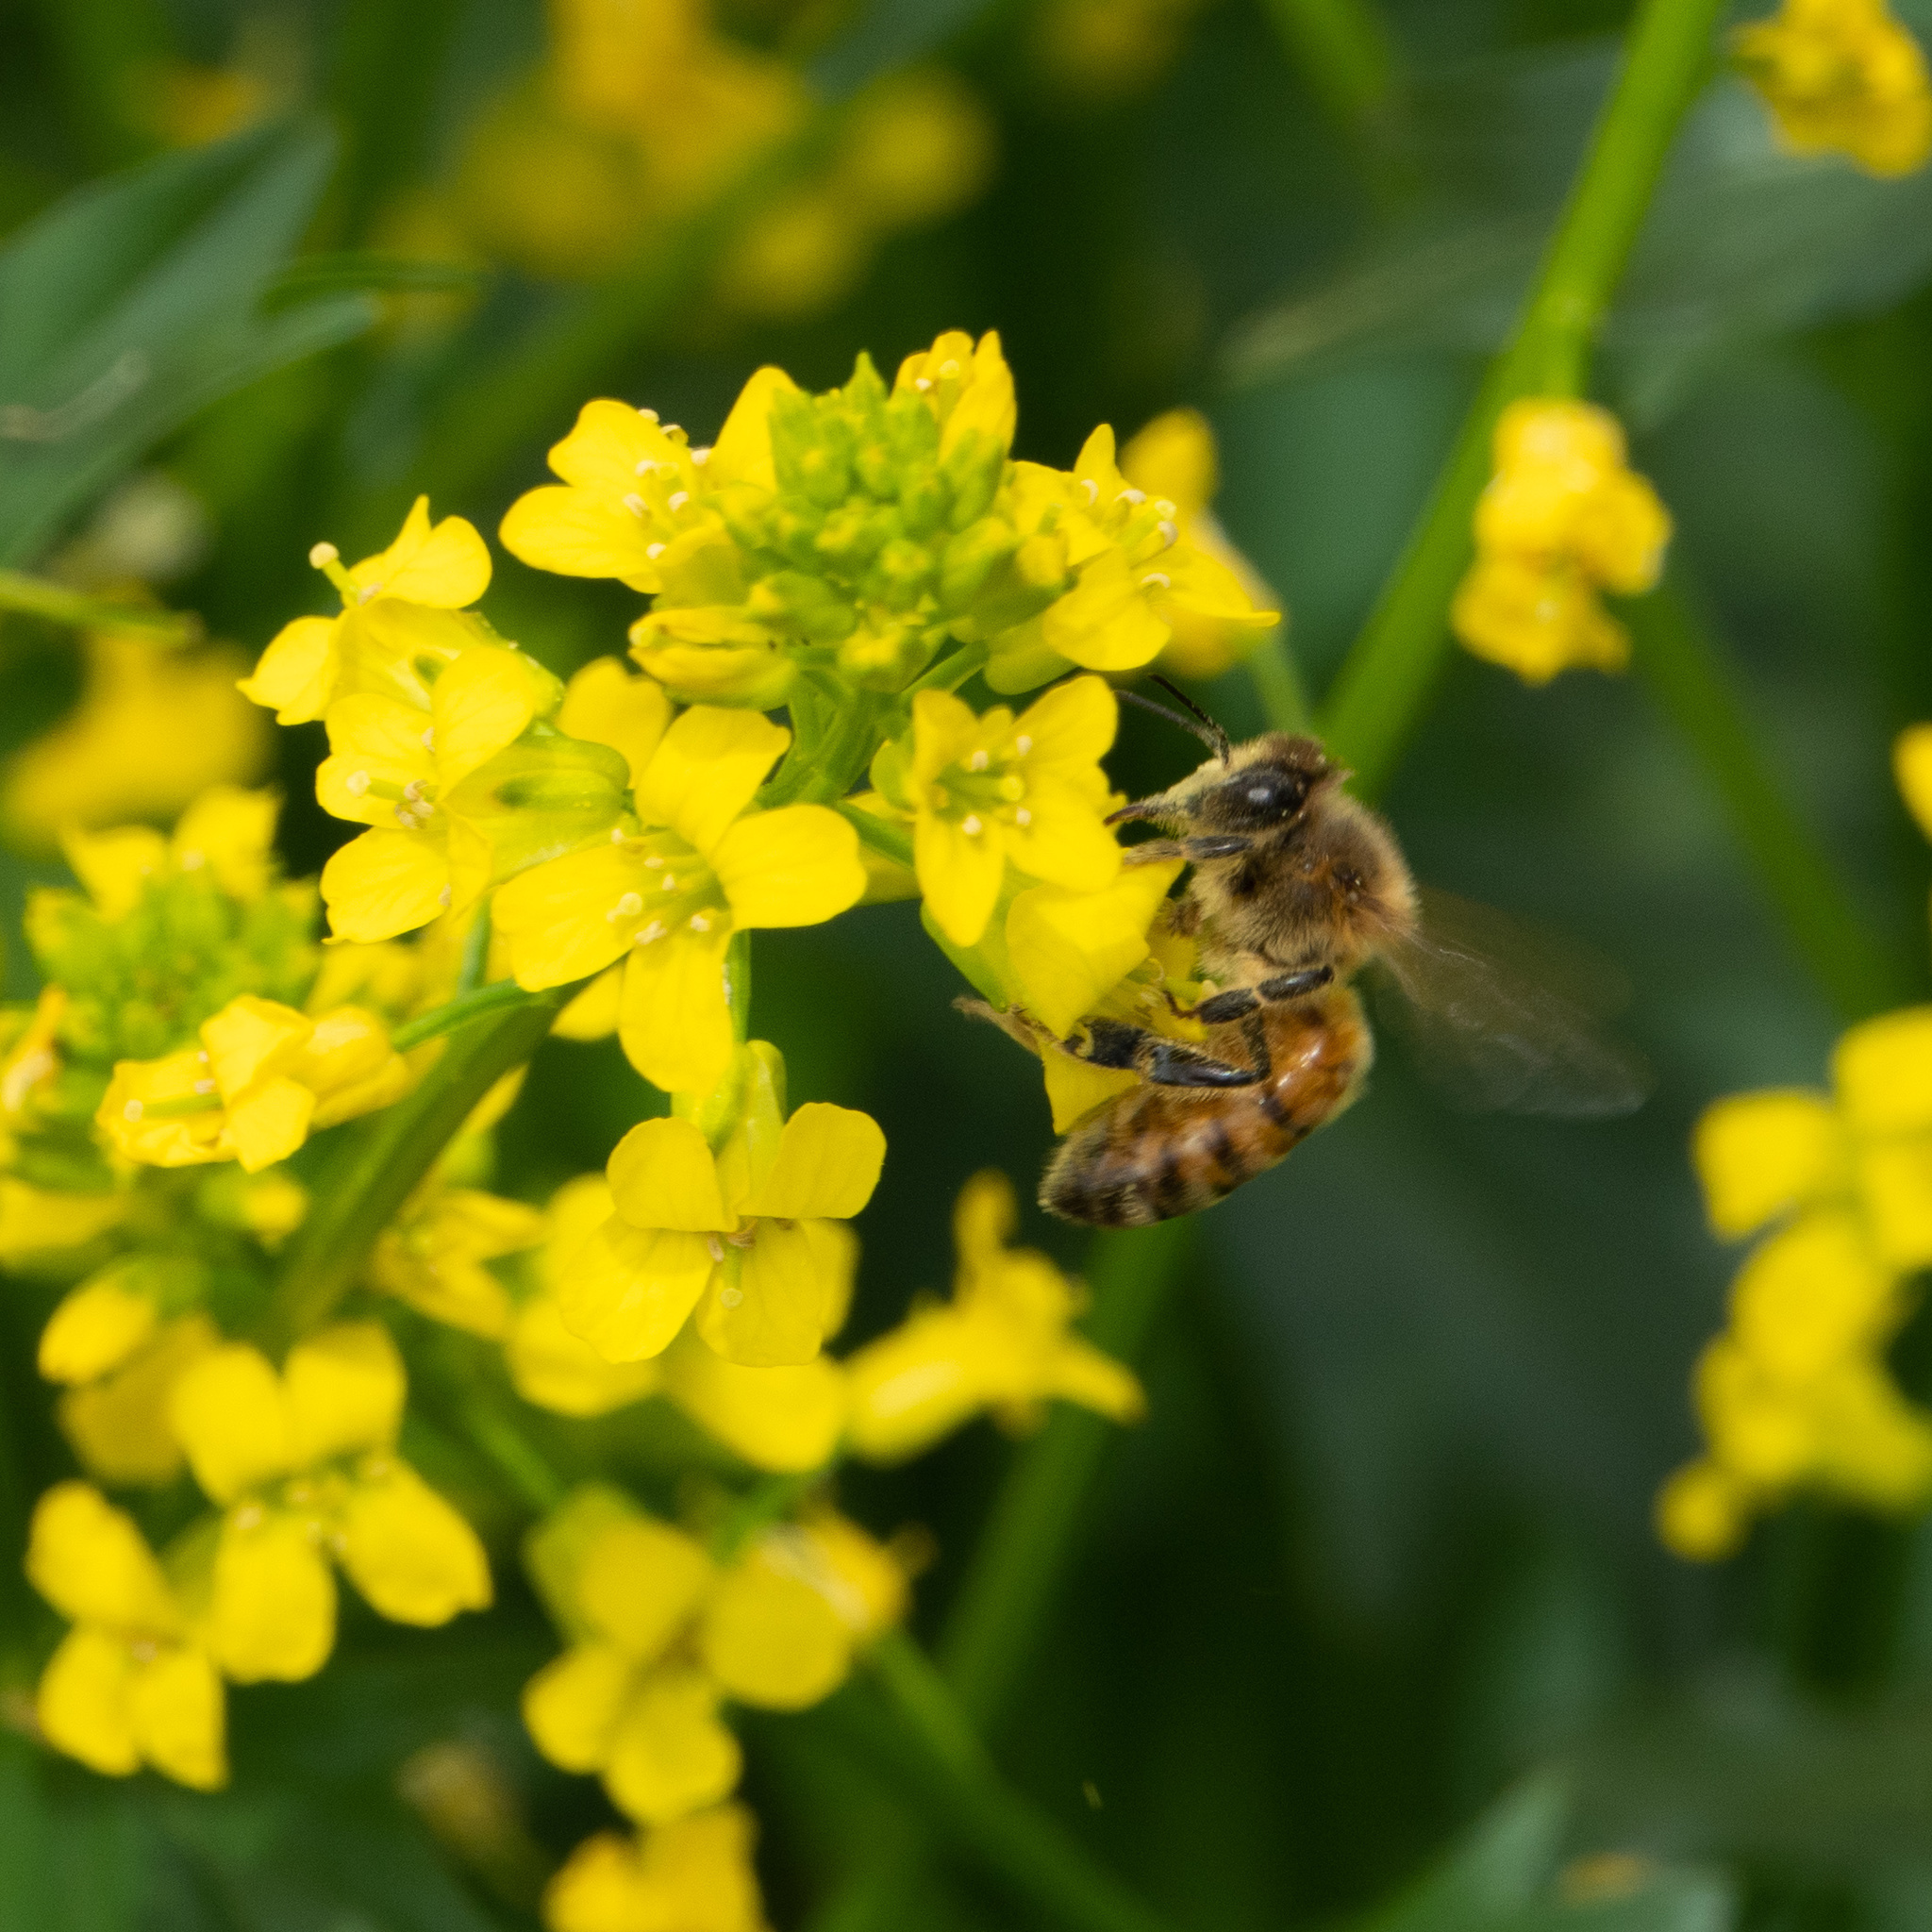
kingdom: Animalia
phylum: Arthropoda
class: Insecta
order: Hymenoptera
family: Apidae
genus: Apis
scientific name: Apis mellifera
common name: Honey bee
